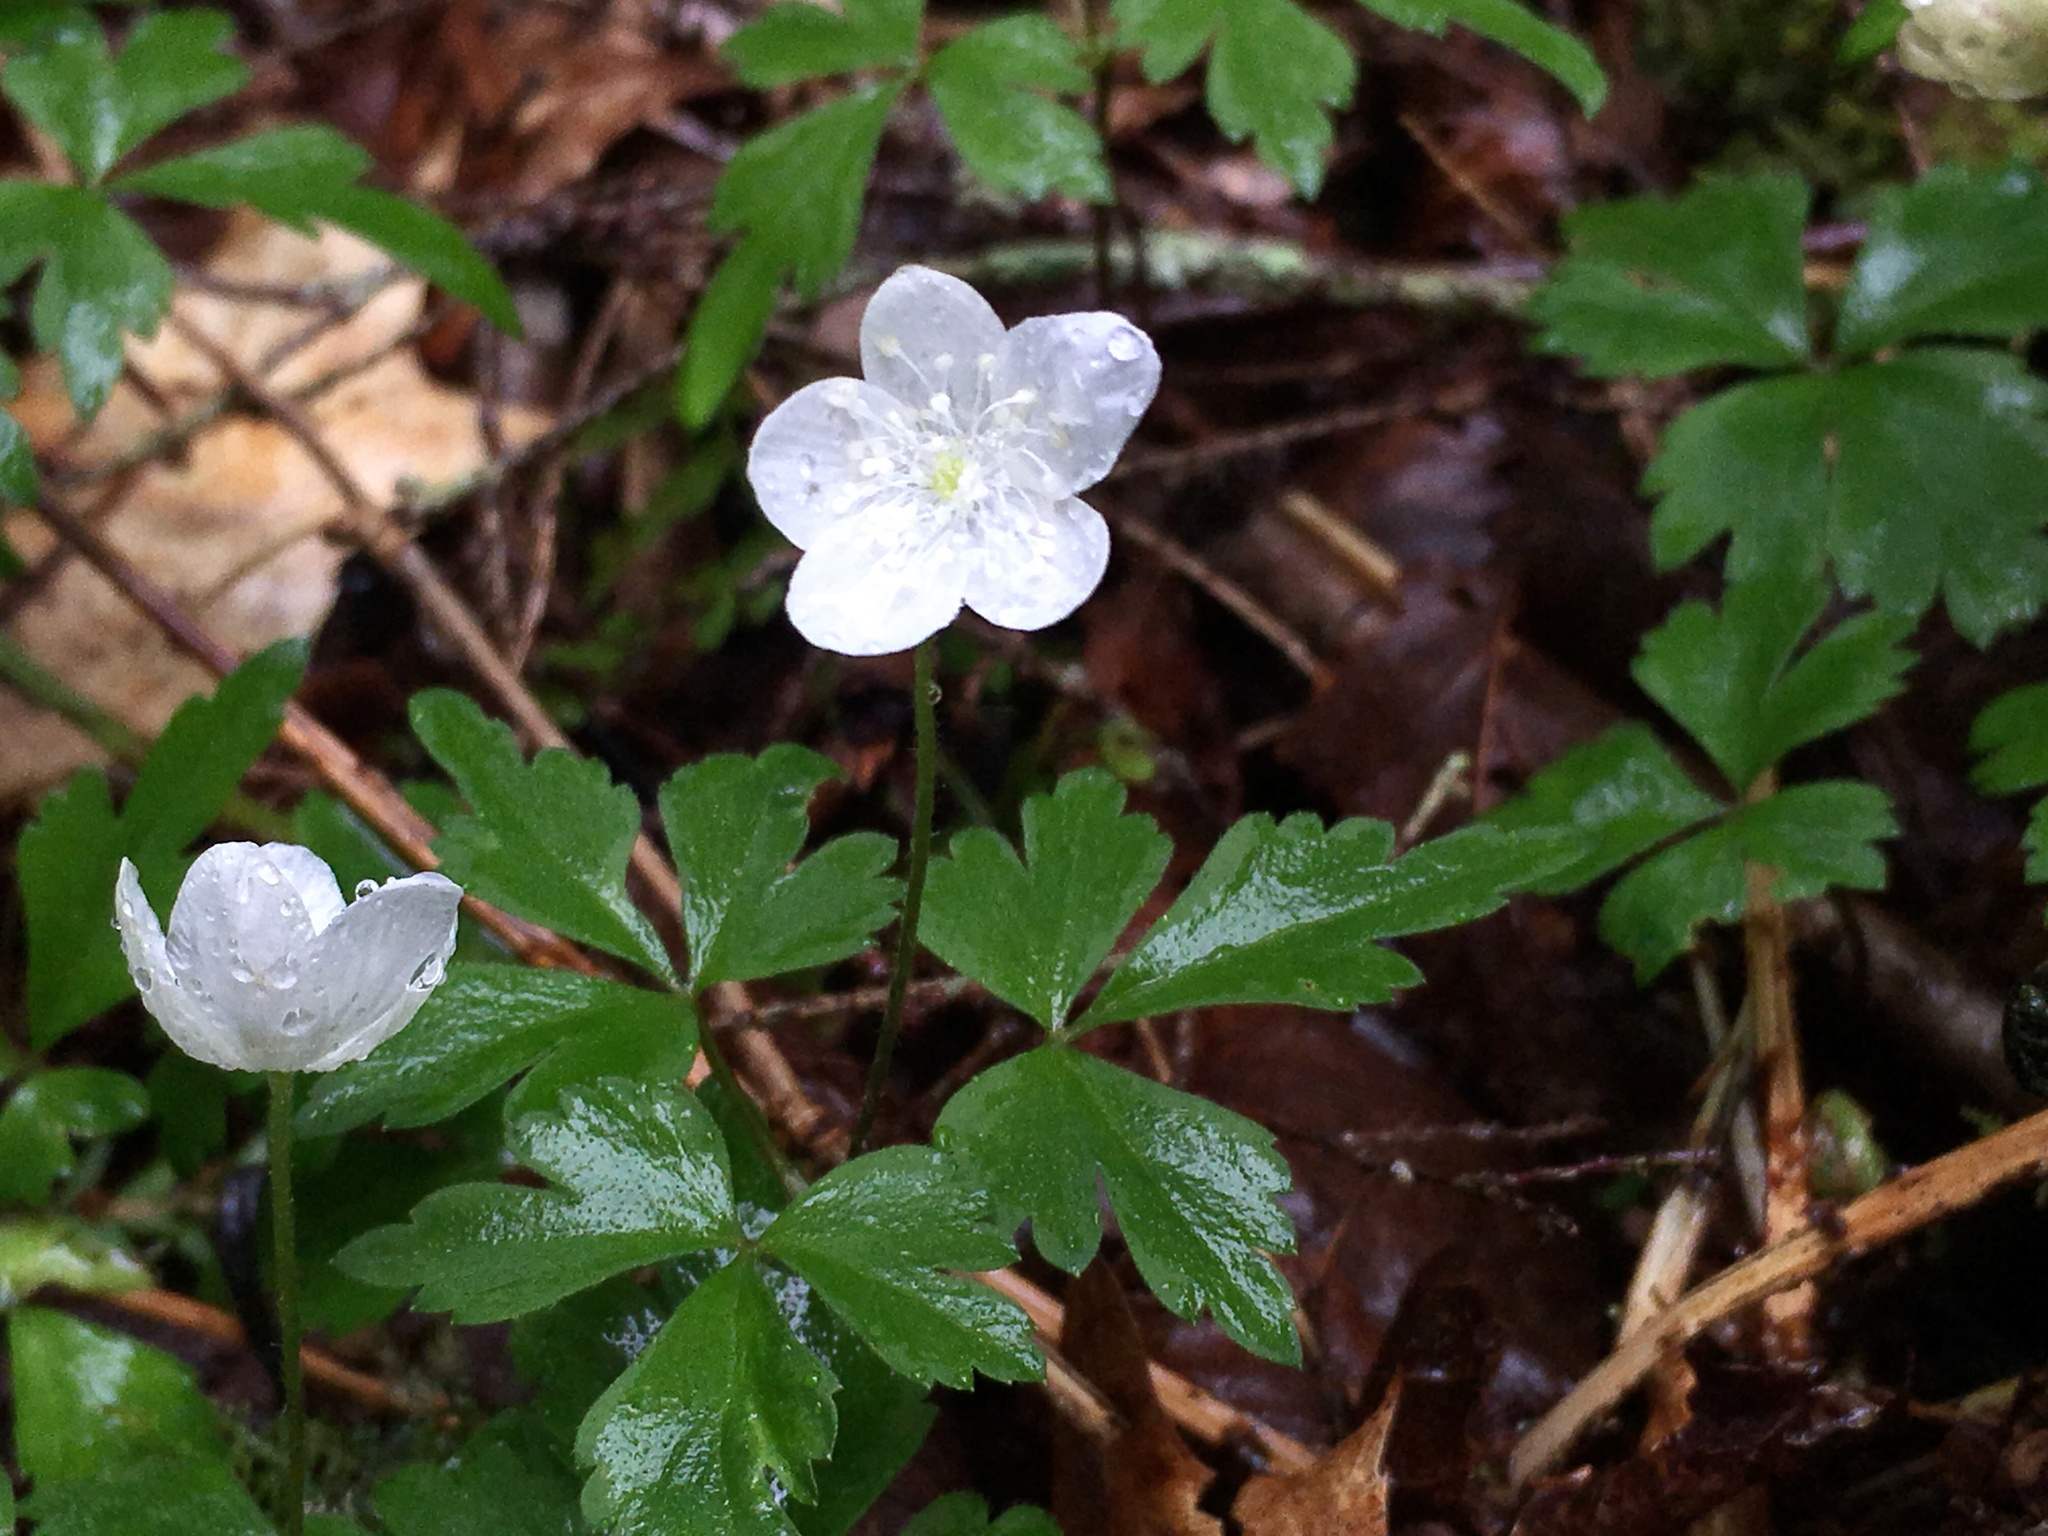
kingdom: Plantae
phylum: Tracheophyta
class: Magnoliopsida
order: Ranunculales
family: Ranunculaceae
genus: Anemone
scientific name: Anemone quinquefolia
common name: Wood anemone
